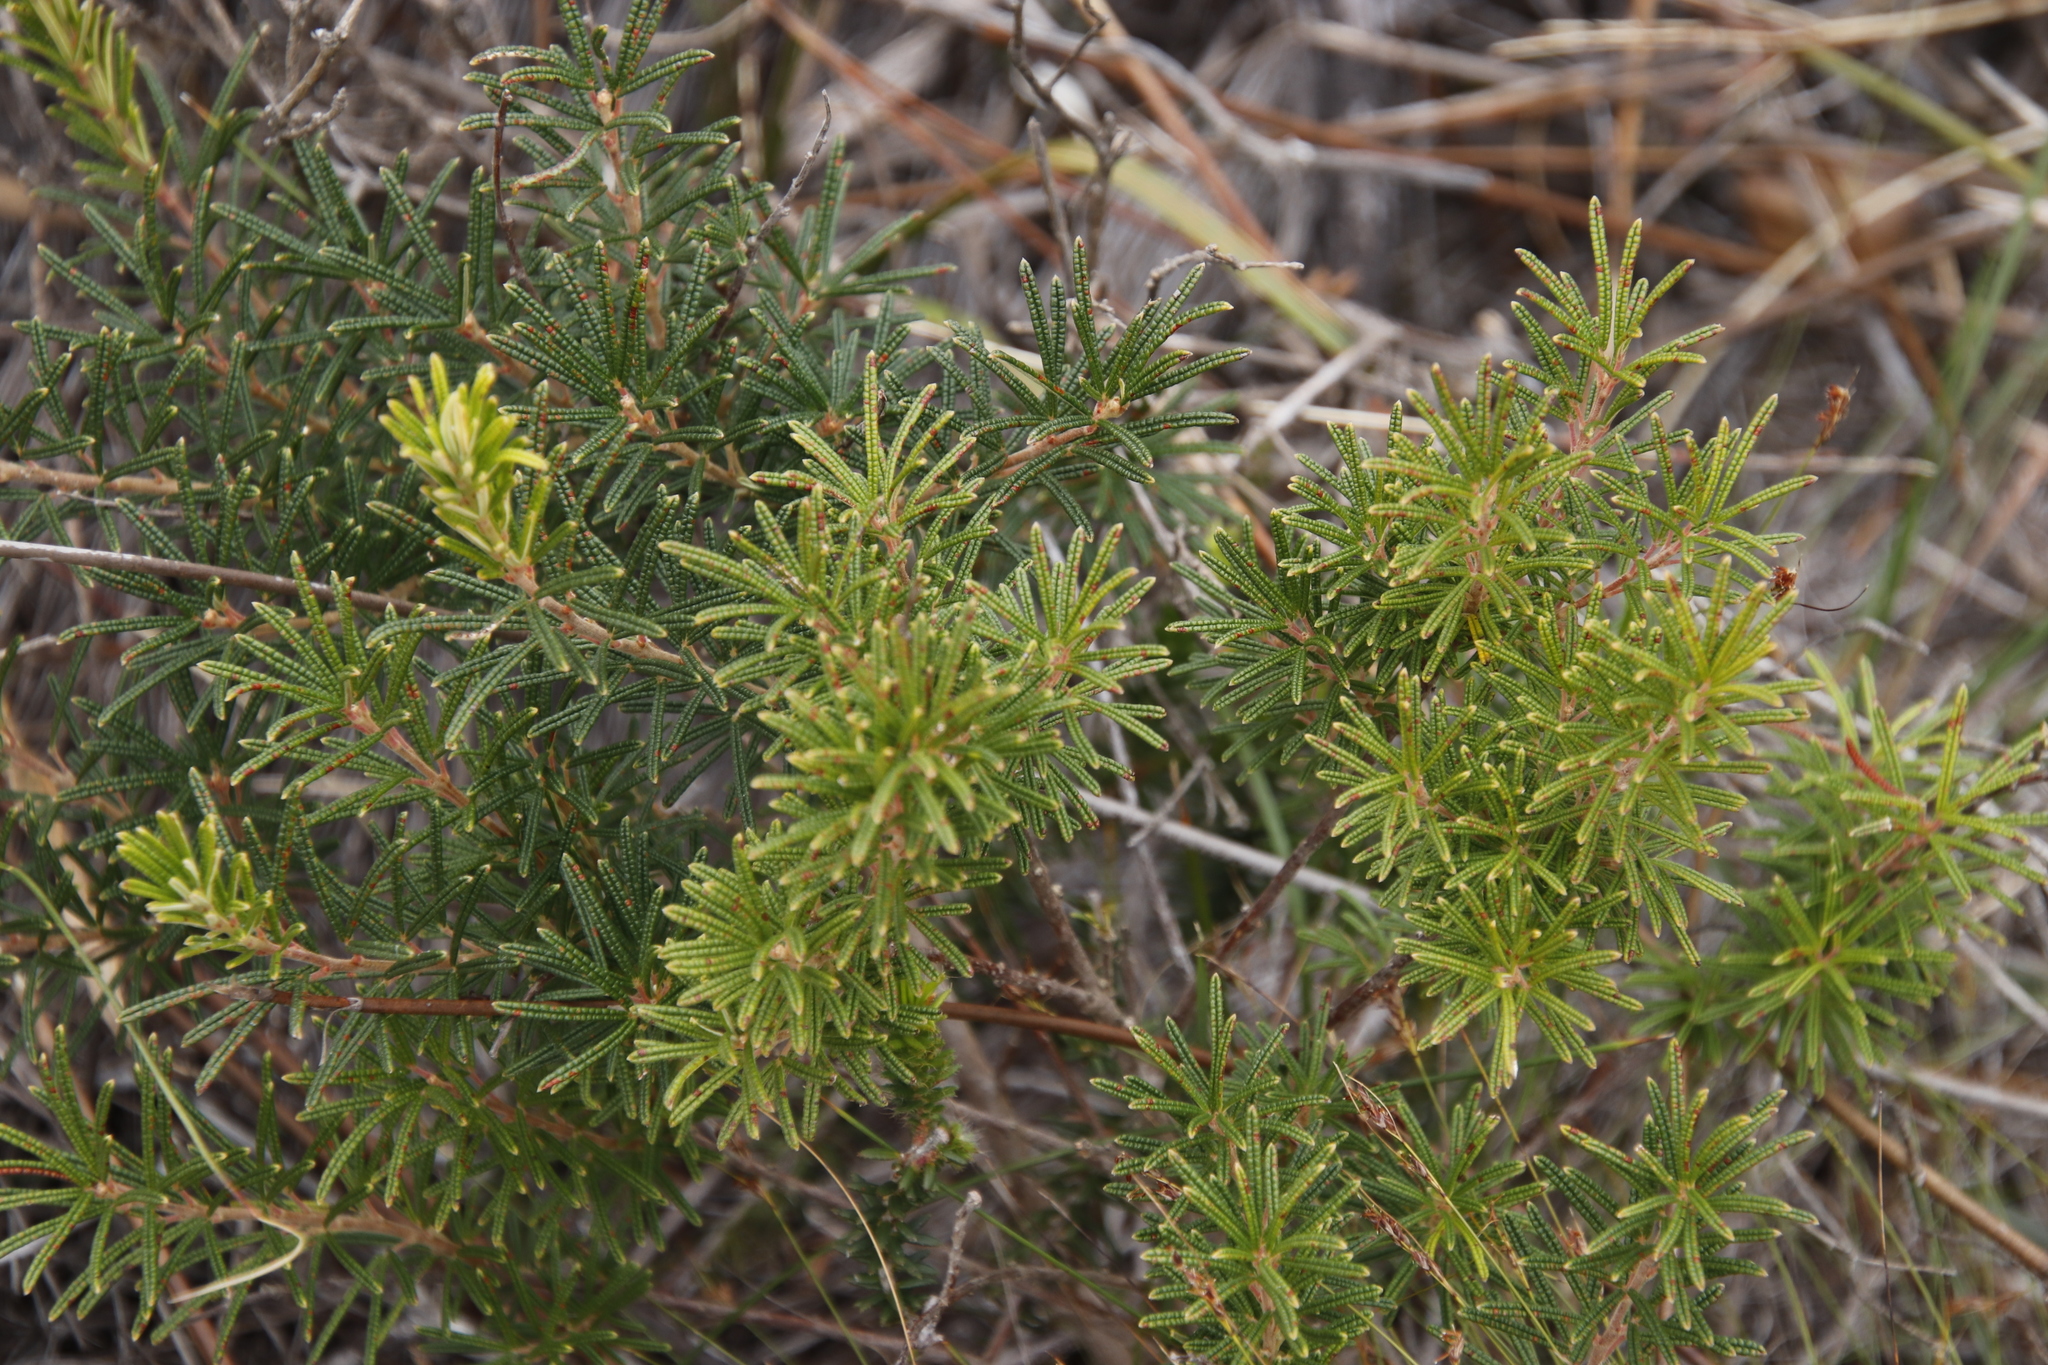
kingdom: Plantae
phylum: Tracheophyta
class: Magnoliopsida
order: Sapindales
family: Anacardiaceae
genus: Searsia
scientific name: Searsia rosmarinifolia
